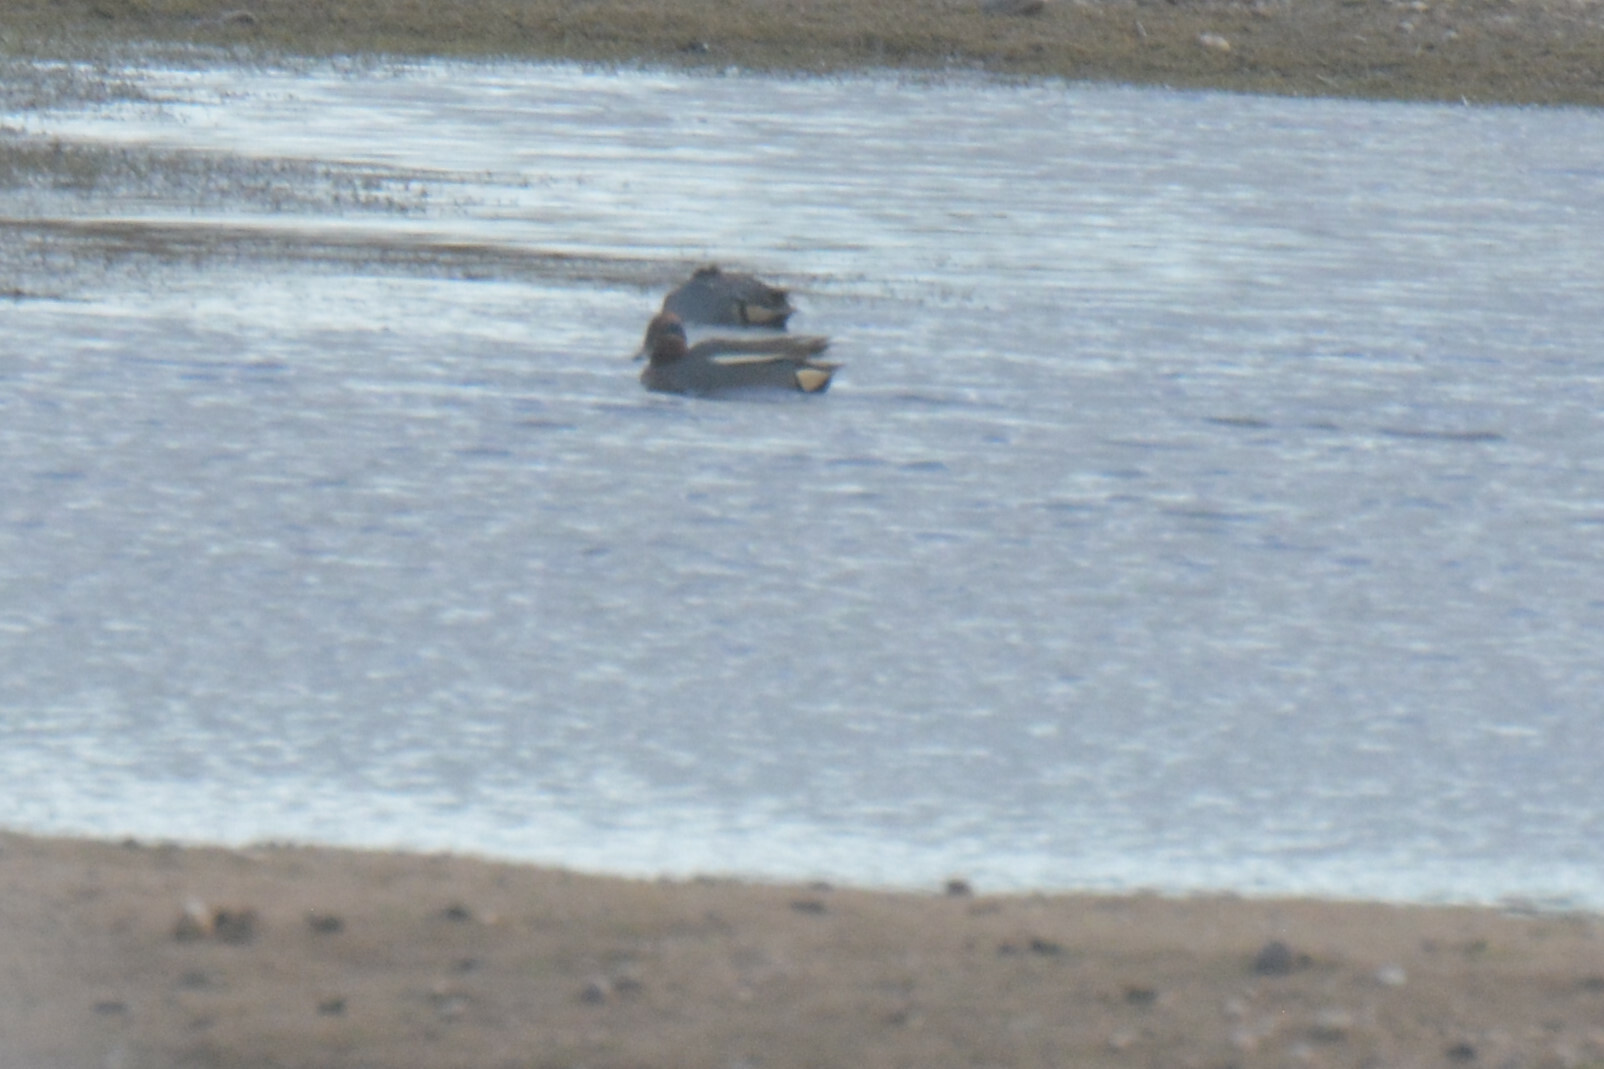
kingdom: Animalia
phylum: Chordata
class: Aves
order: Anseriformes
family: Anatidae
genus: Anas
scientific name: Anas crecca
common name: Eurasian teal
